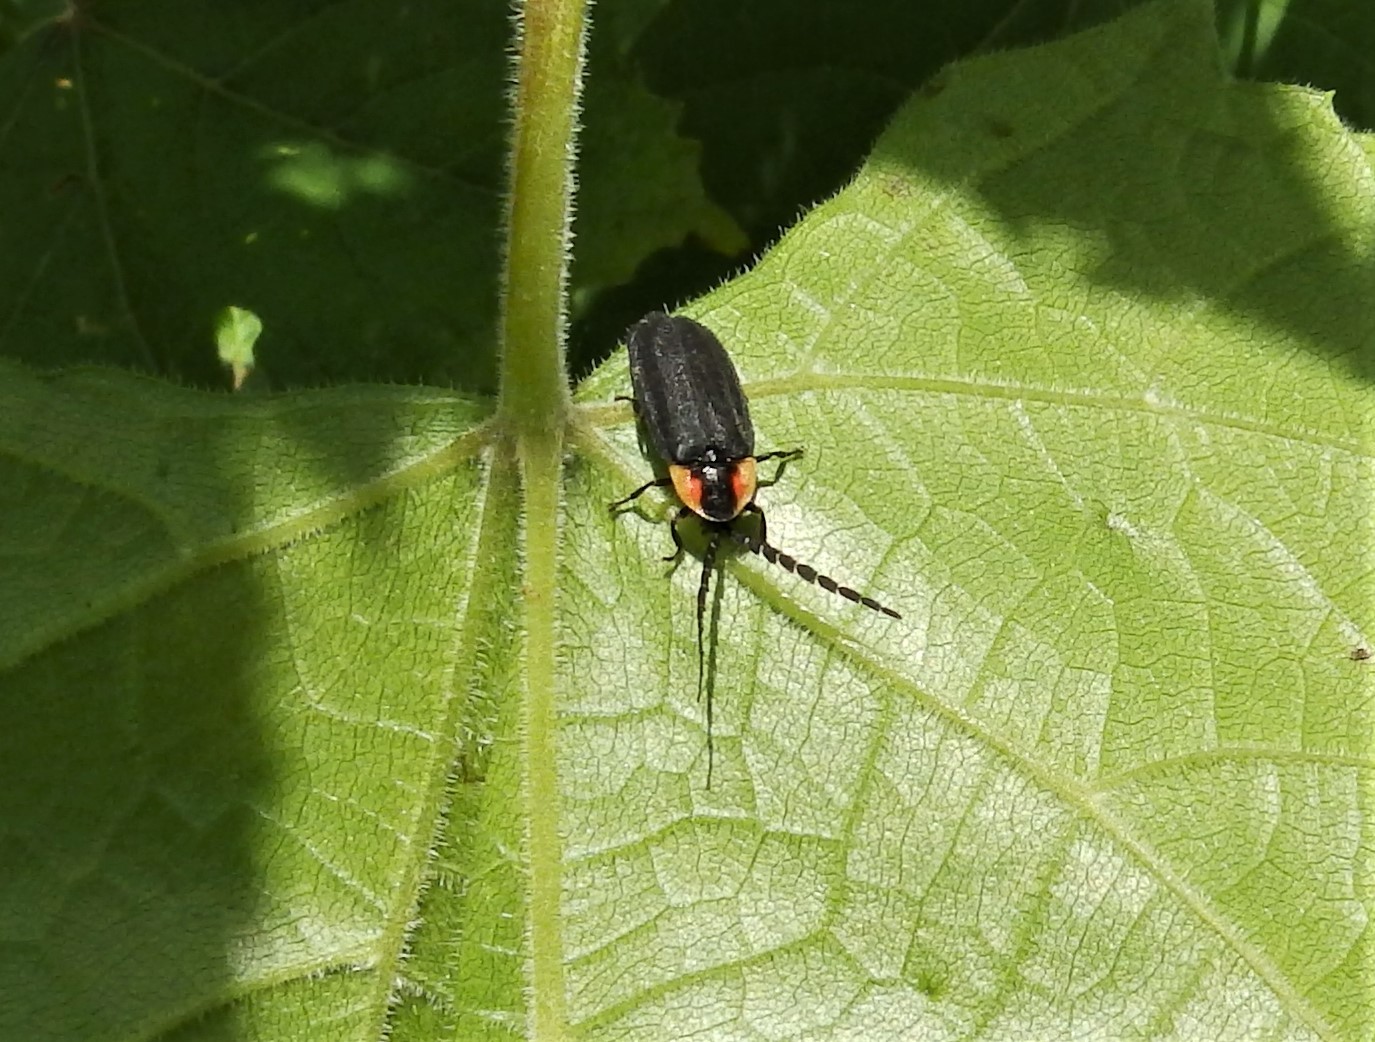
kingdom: Animalia
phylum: Arthropoda
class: Insecta
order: Coleoptera
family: Lampyridae
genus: Lucidota
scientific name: Lucidota atra
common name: Black firefly
